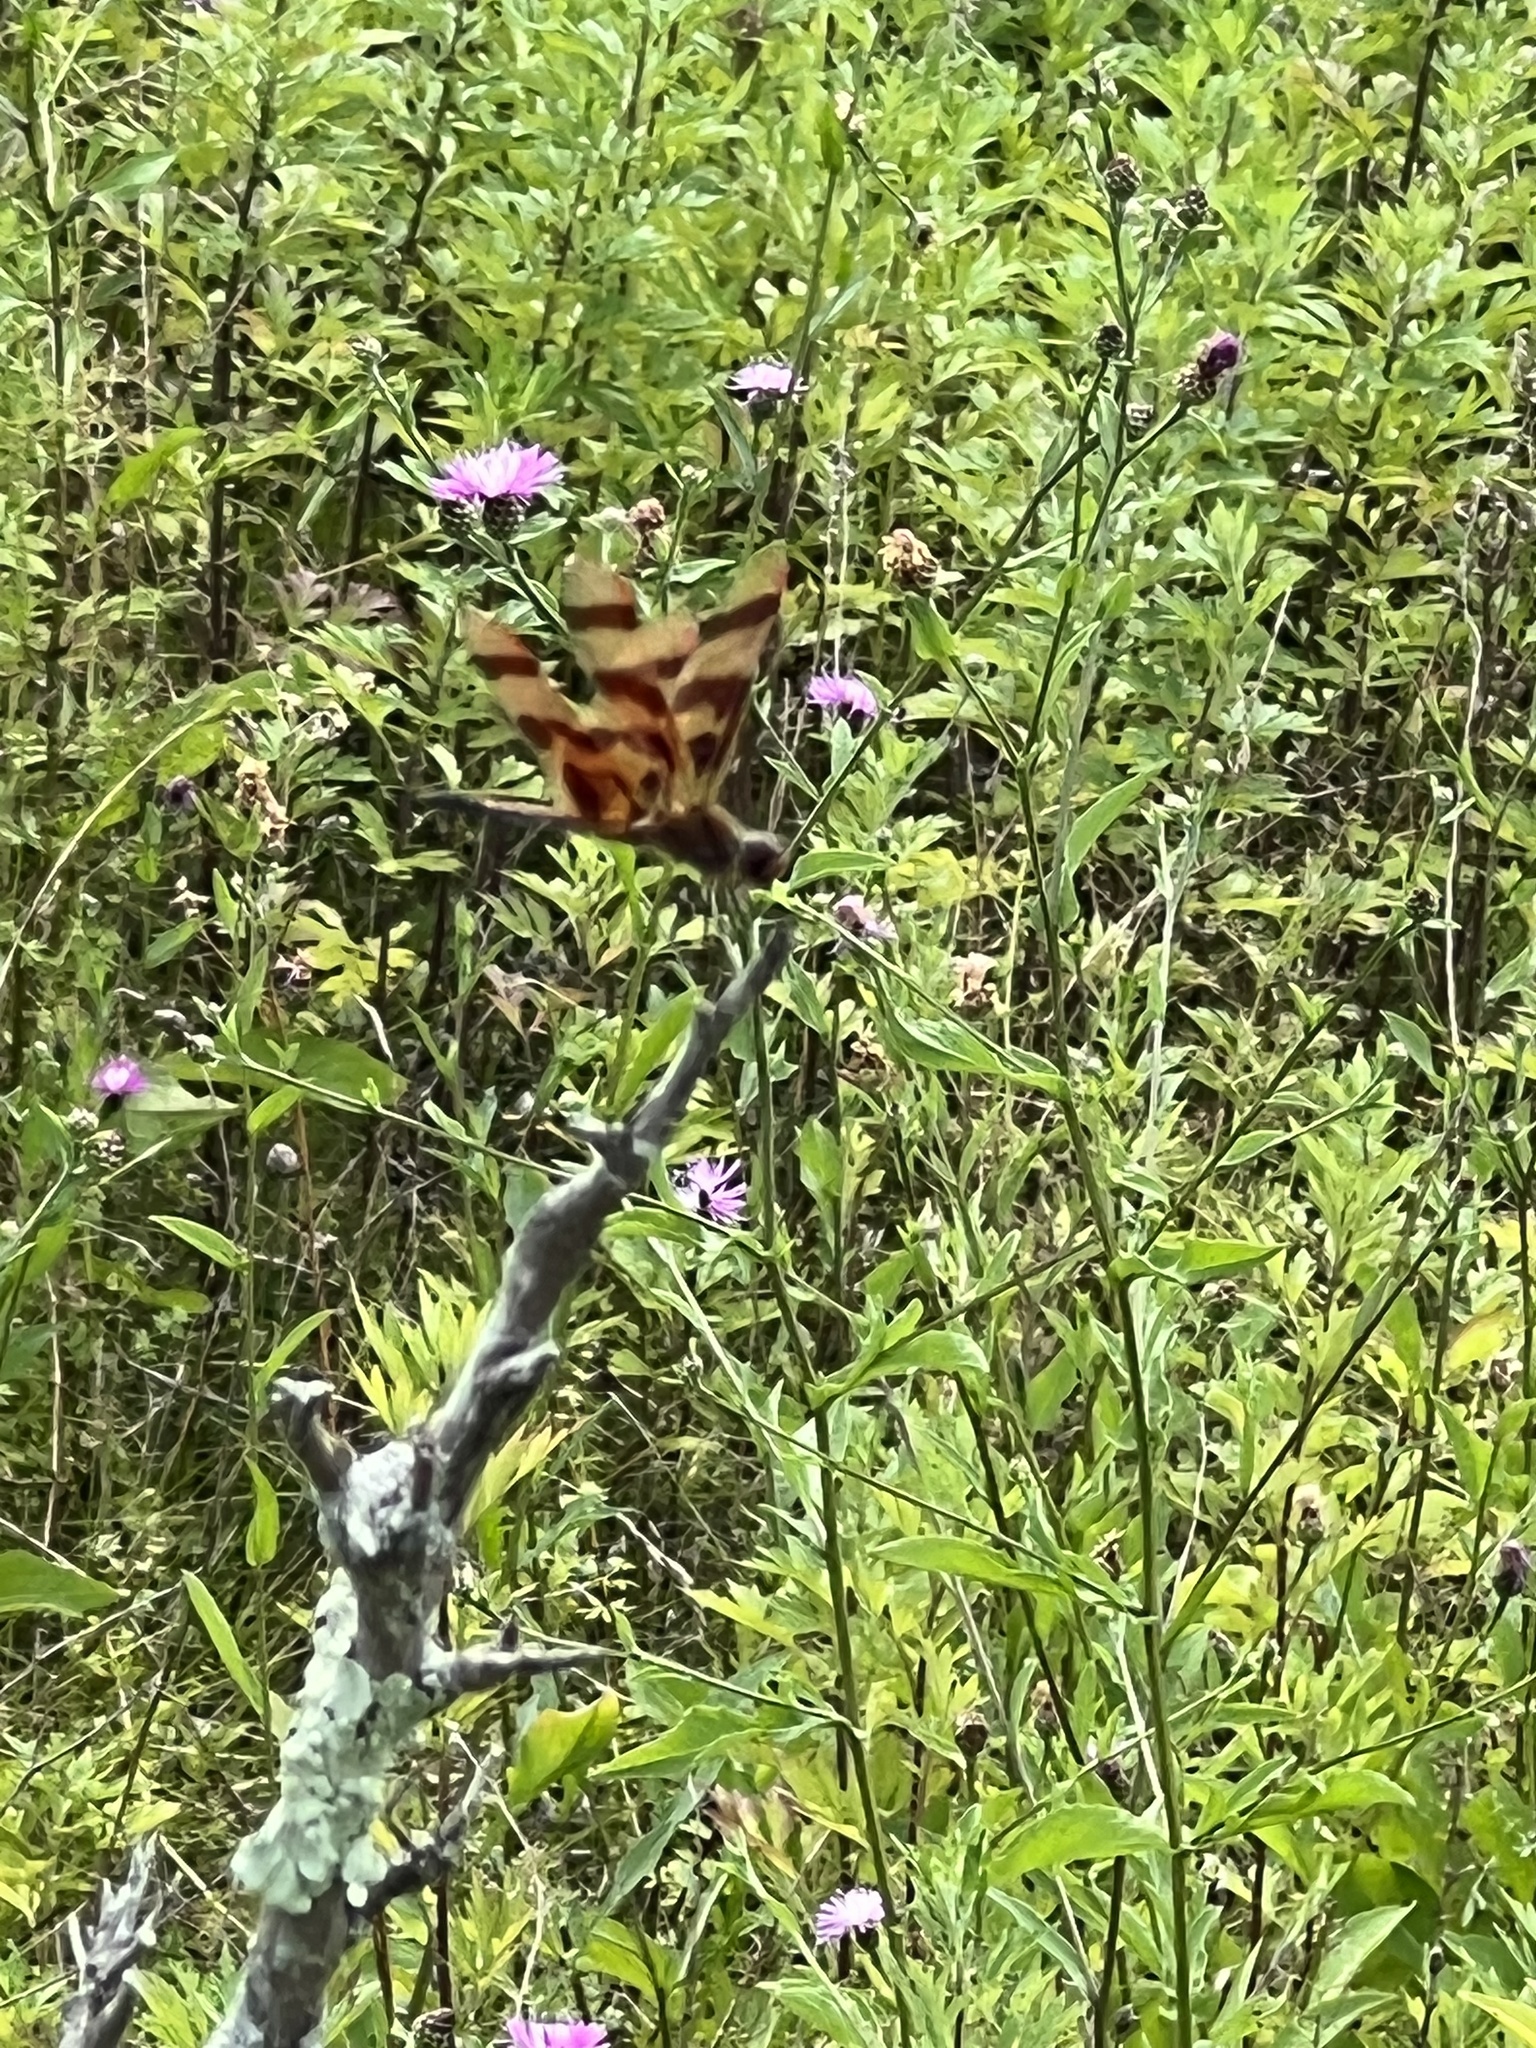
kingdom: Animalia
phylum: Arthropoda
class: Insecta
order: Odonata
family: Libellulidae
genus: Celithemis
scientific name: Celithemis eponina
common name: Halloween pennant
